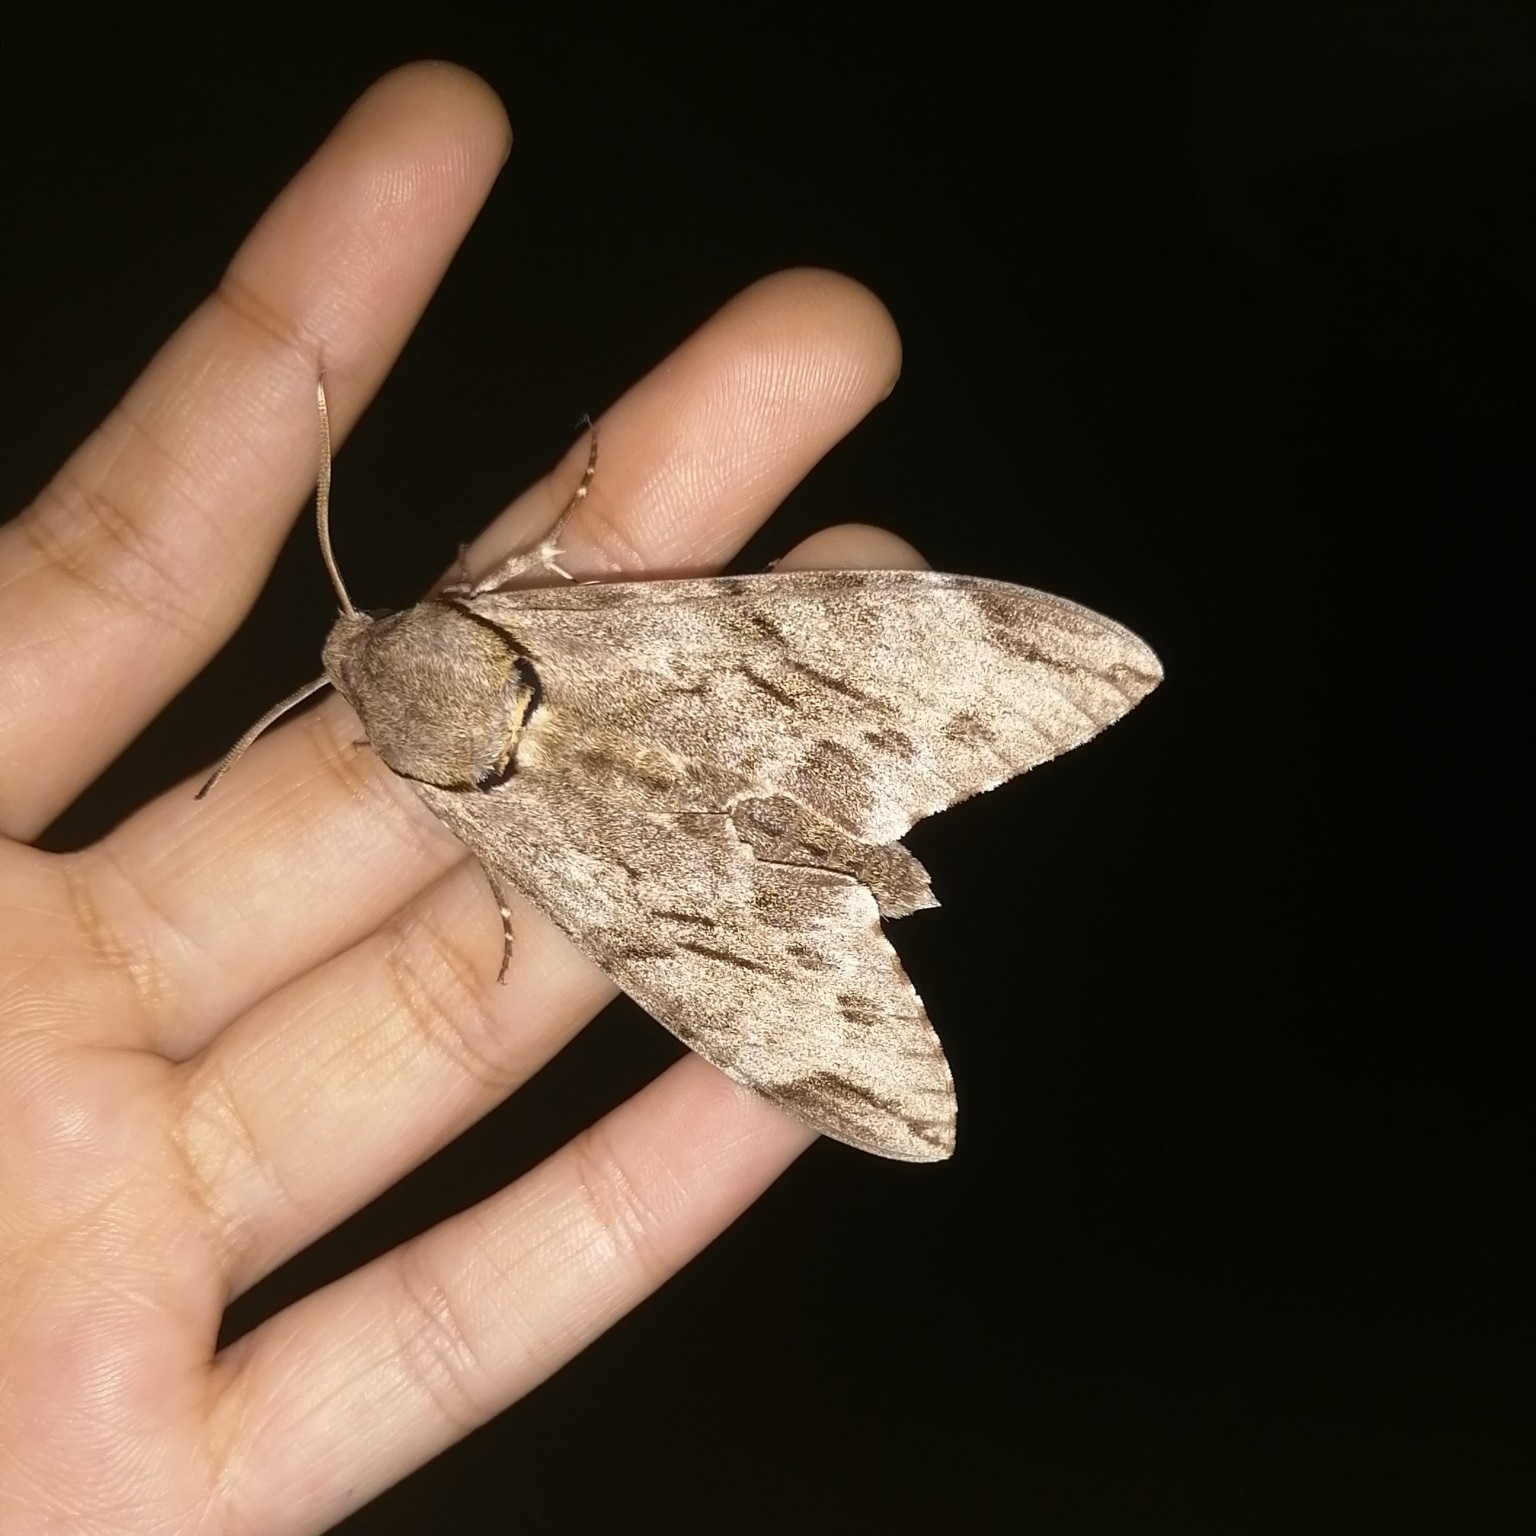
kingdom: Animalia
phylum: Arthropoda
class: Insecta
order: Lepidoptera
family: Sphingidae
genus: Psilogramma
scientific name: Psilogramma vates
